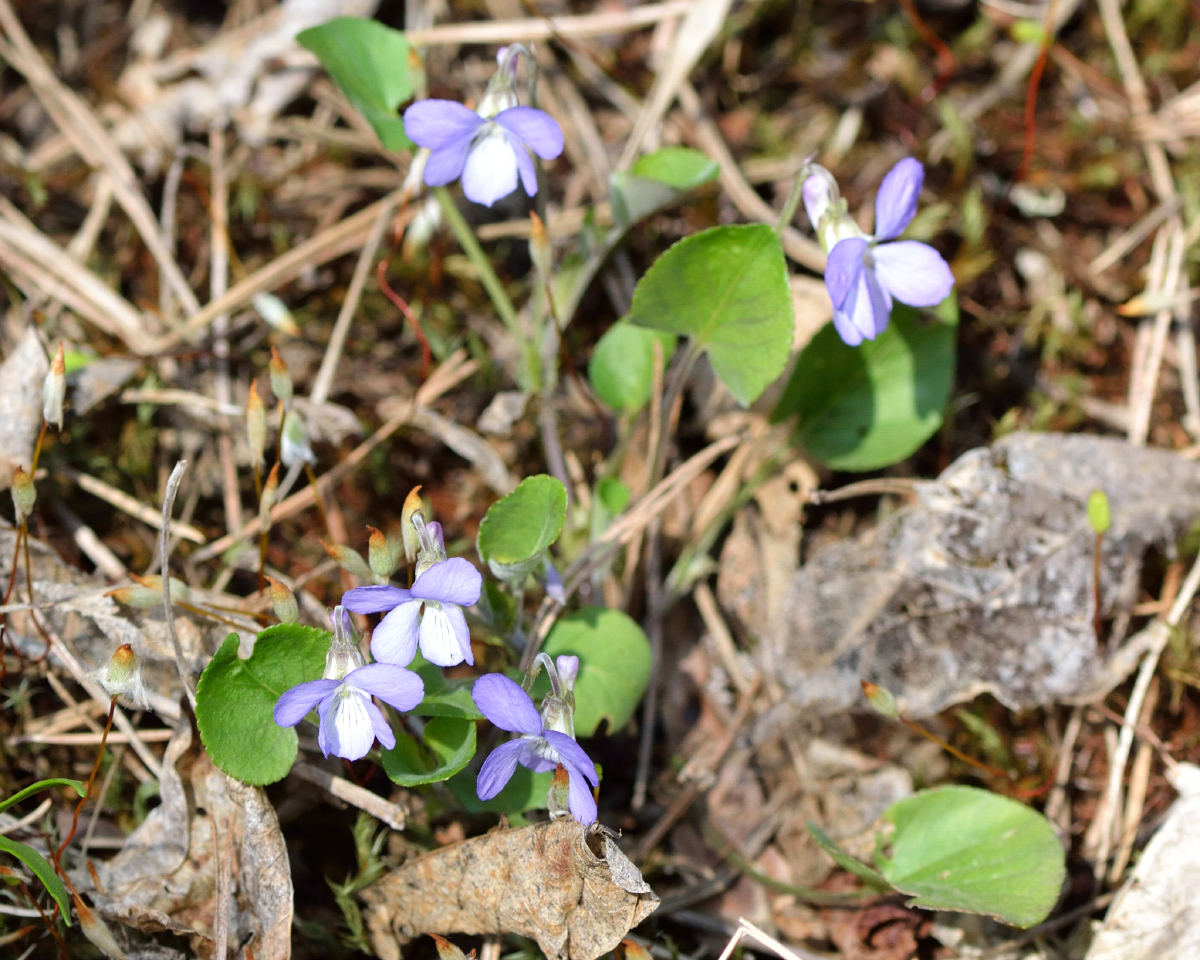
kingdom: Plantae
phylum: Tracheophyta
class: Magnoliopsida
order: Malpighiales
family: Violaceae
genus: Viola
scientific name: Viola rupestris
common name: Teesdale violet
